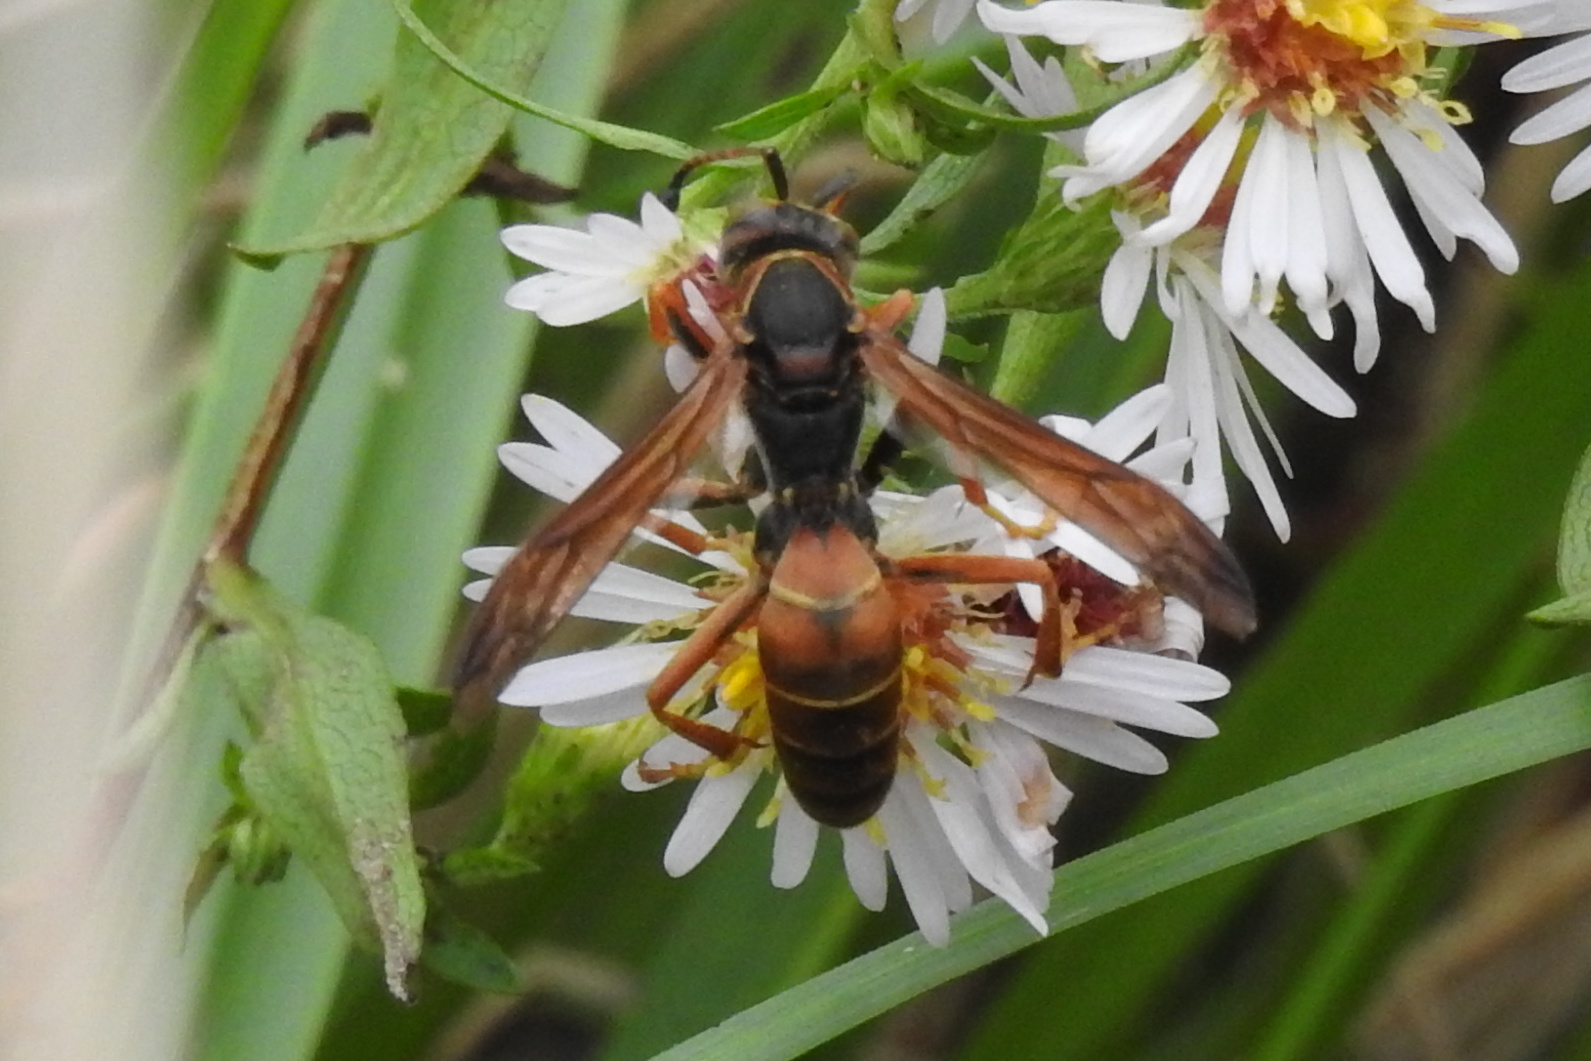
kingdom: Animalia
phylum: Arthropoda
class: Insecta
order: Hymenoptera
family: Eumenidae
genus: Polistes
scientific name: Polistes fuscatus
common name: Dark paper wasp
